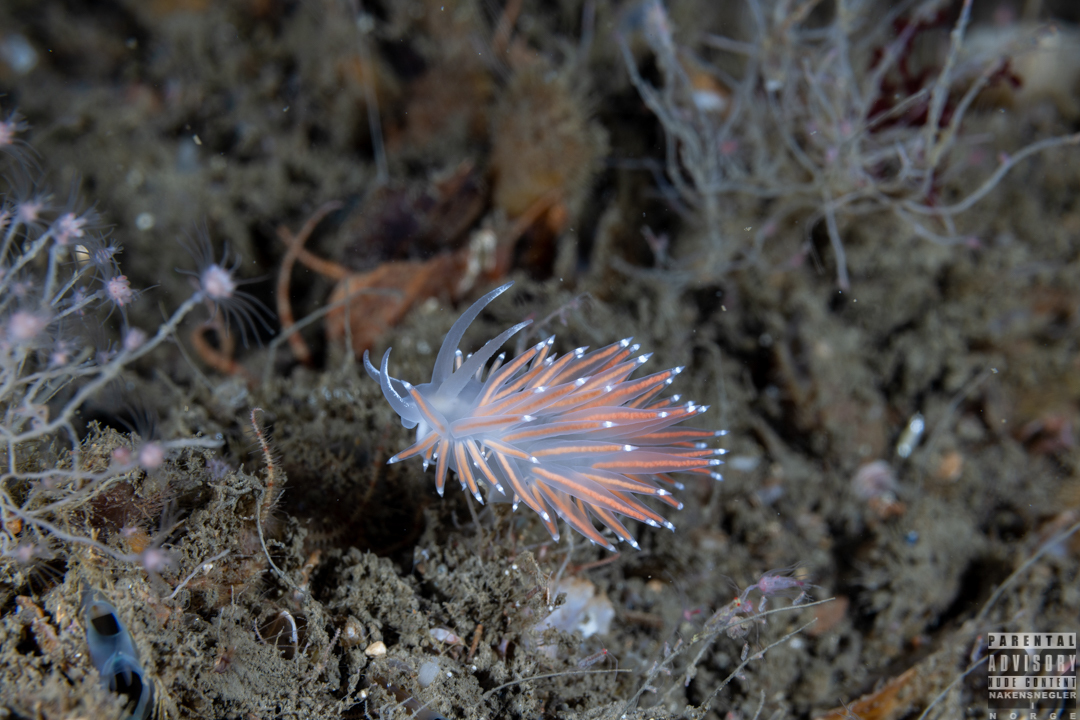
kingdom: Animalia
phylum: Mollusca
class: Gastropoda
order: Nudibranchia
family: Coryphellidae
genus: Coryphella
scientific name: Coryphella browni
